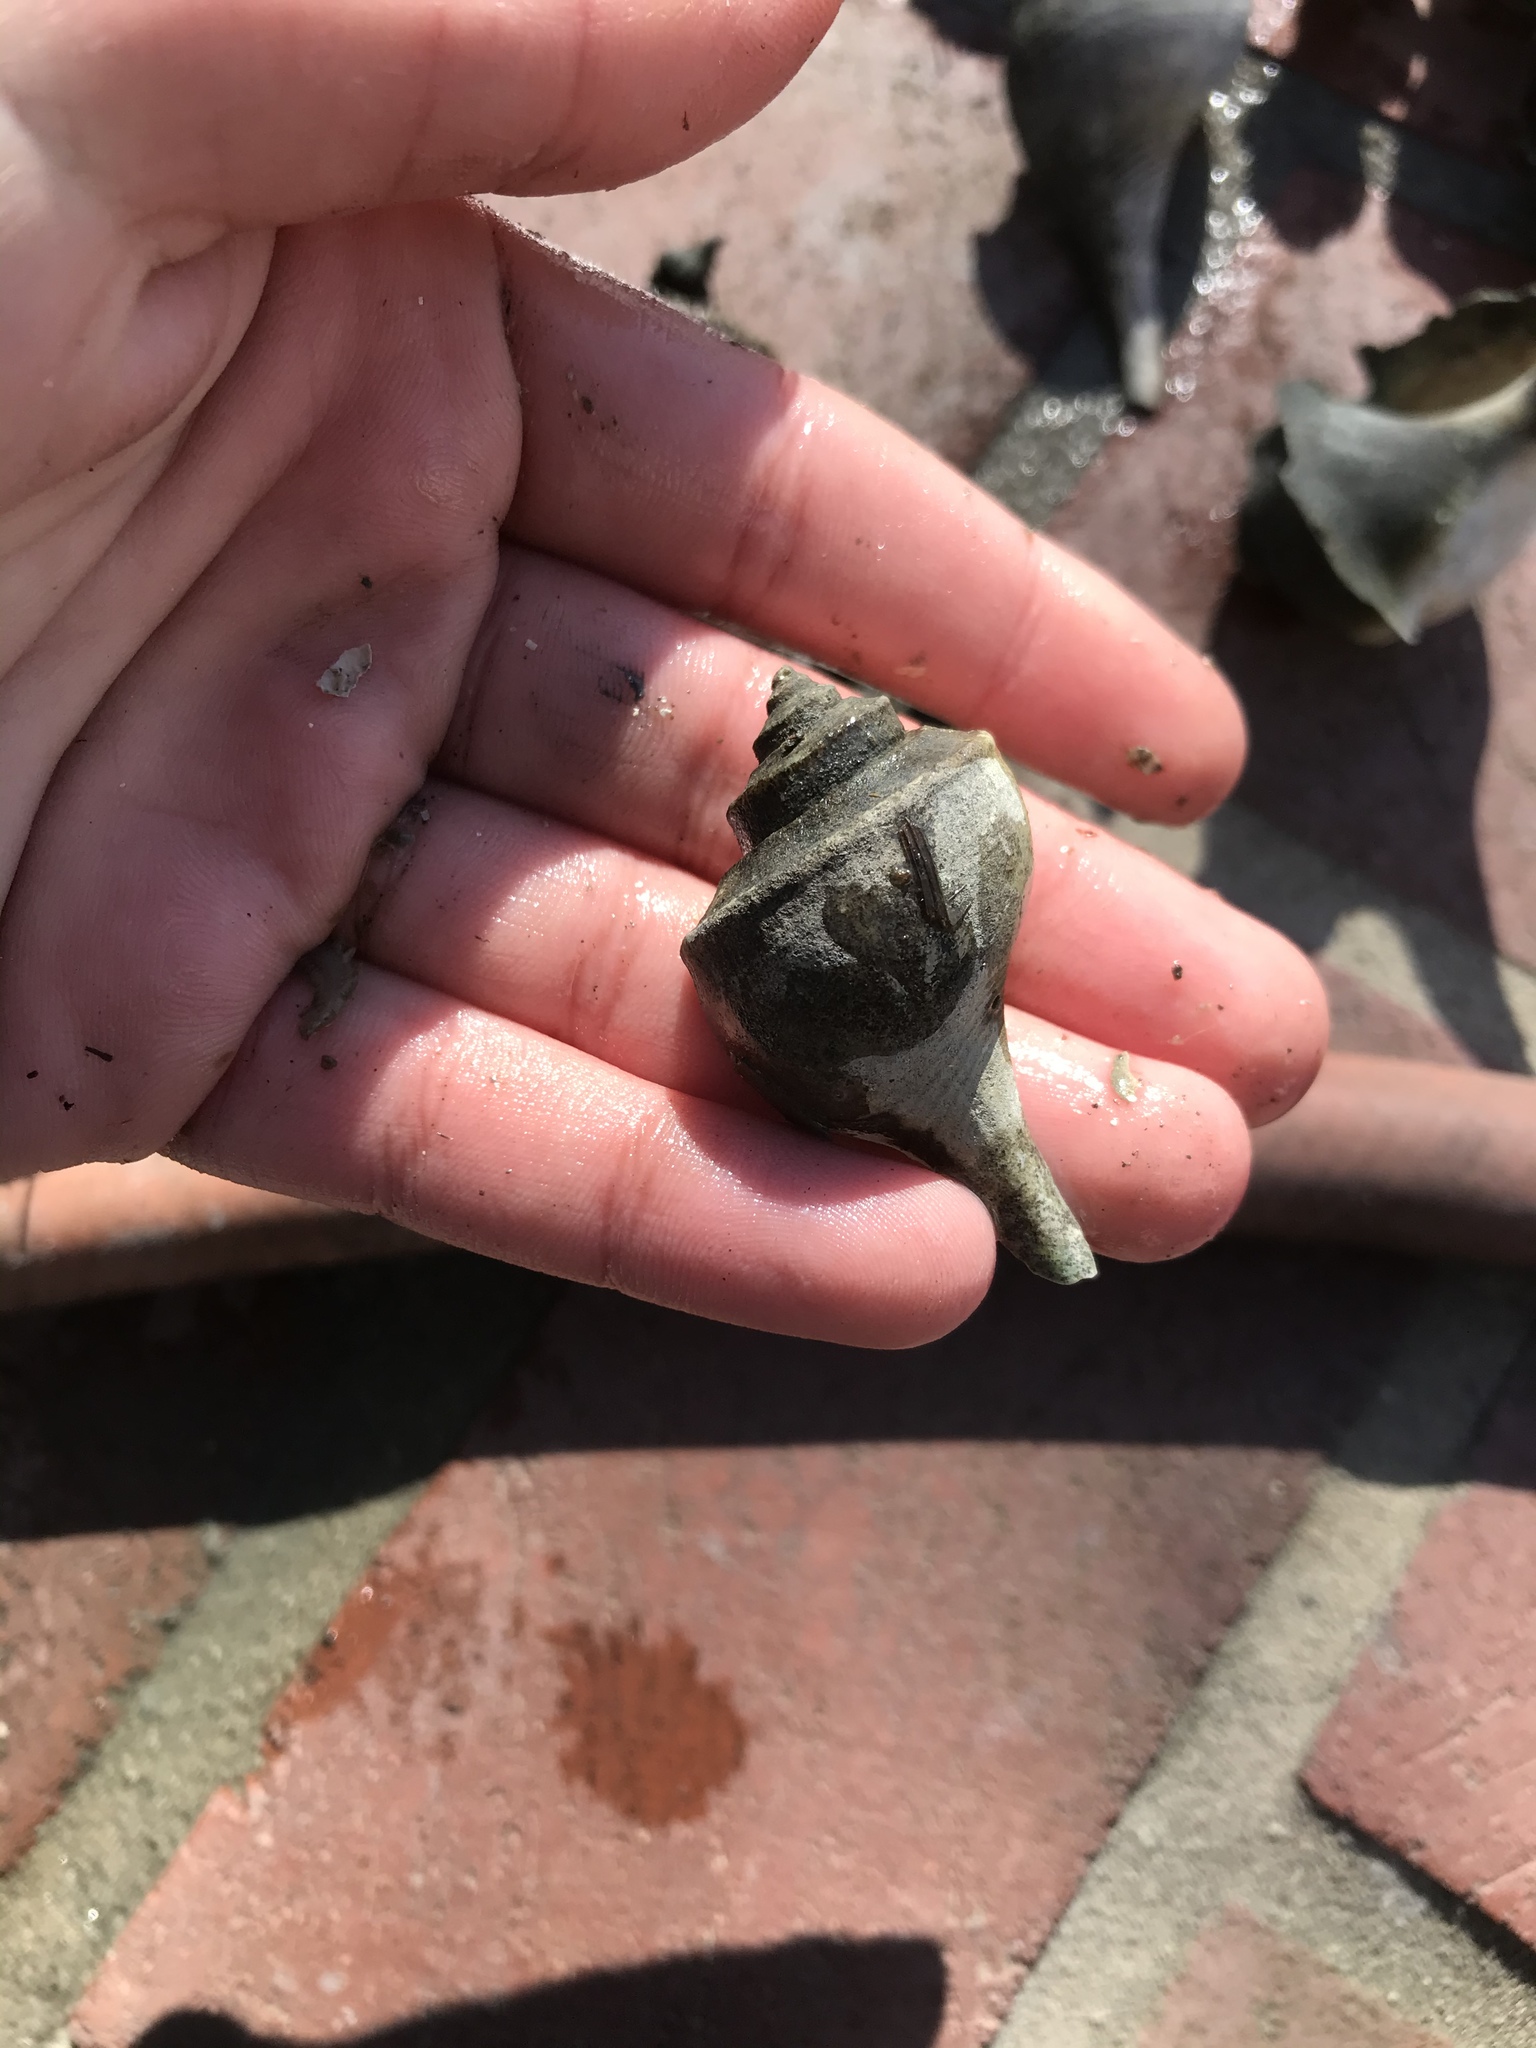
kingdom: Animalia
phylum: Mollusca
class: Gastropoda
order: Neogastropoda
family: Busyconidae
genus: Busycotypus
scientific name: Busycotypus canaliculatus
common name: Channeled whelk
